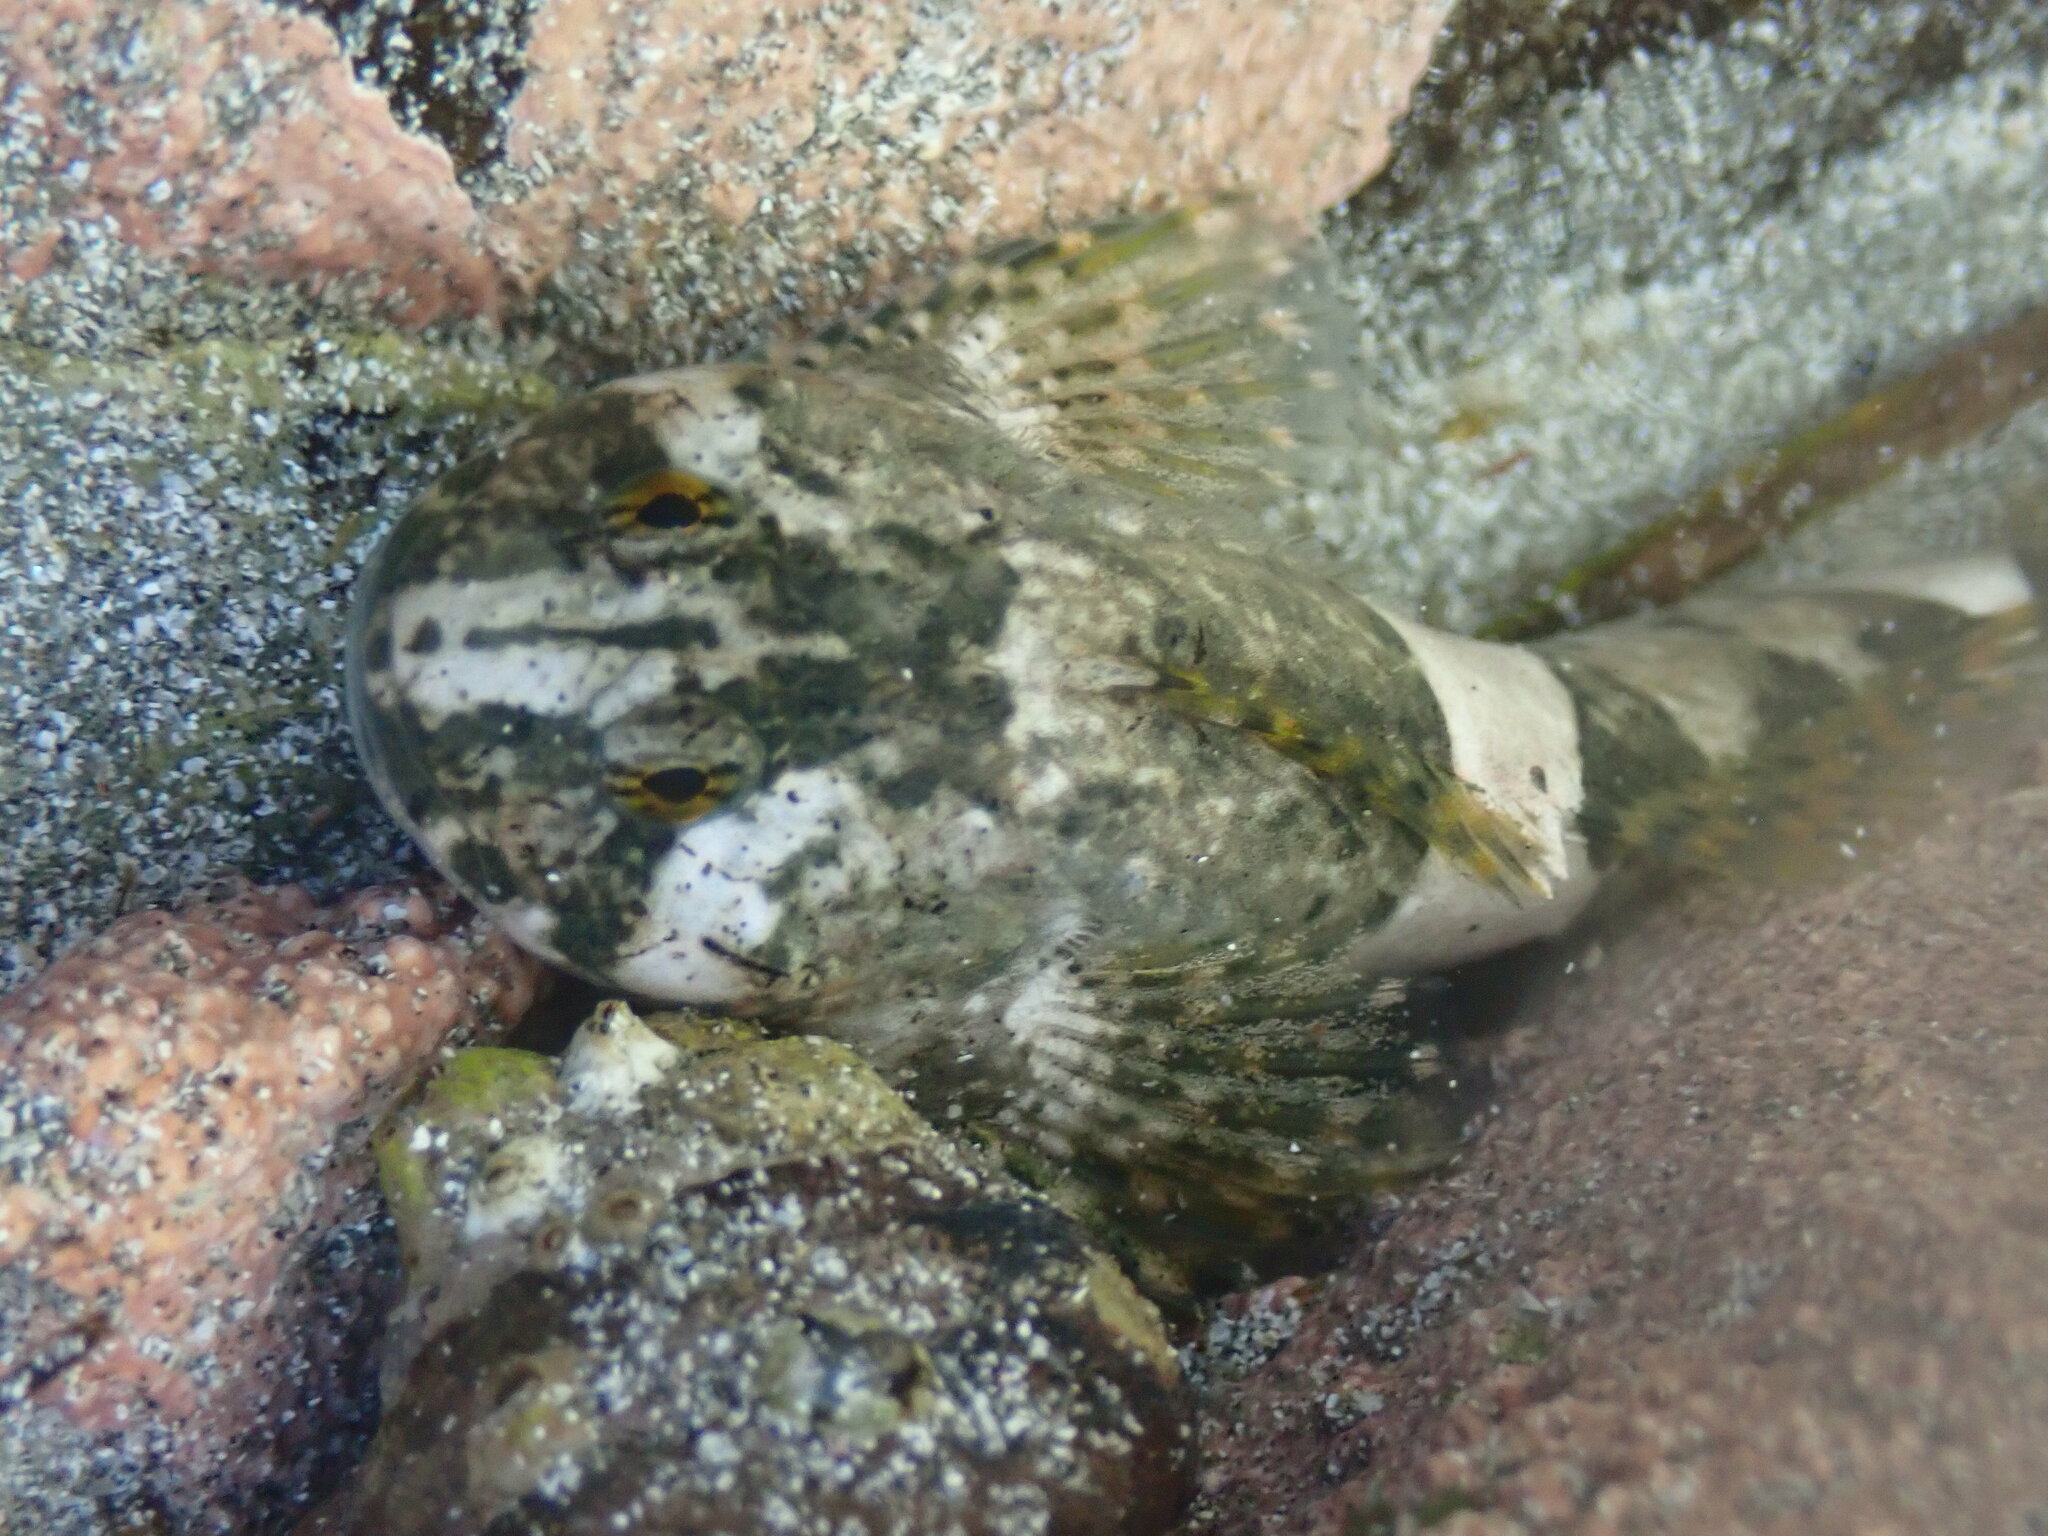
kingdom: Animalia
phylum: Chordata
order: Scorpaeniformes
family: Cottidae
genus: Clinocottus
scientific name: Clinocottus globiceps
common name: Mosshead sculpin
